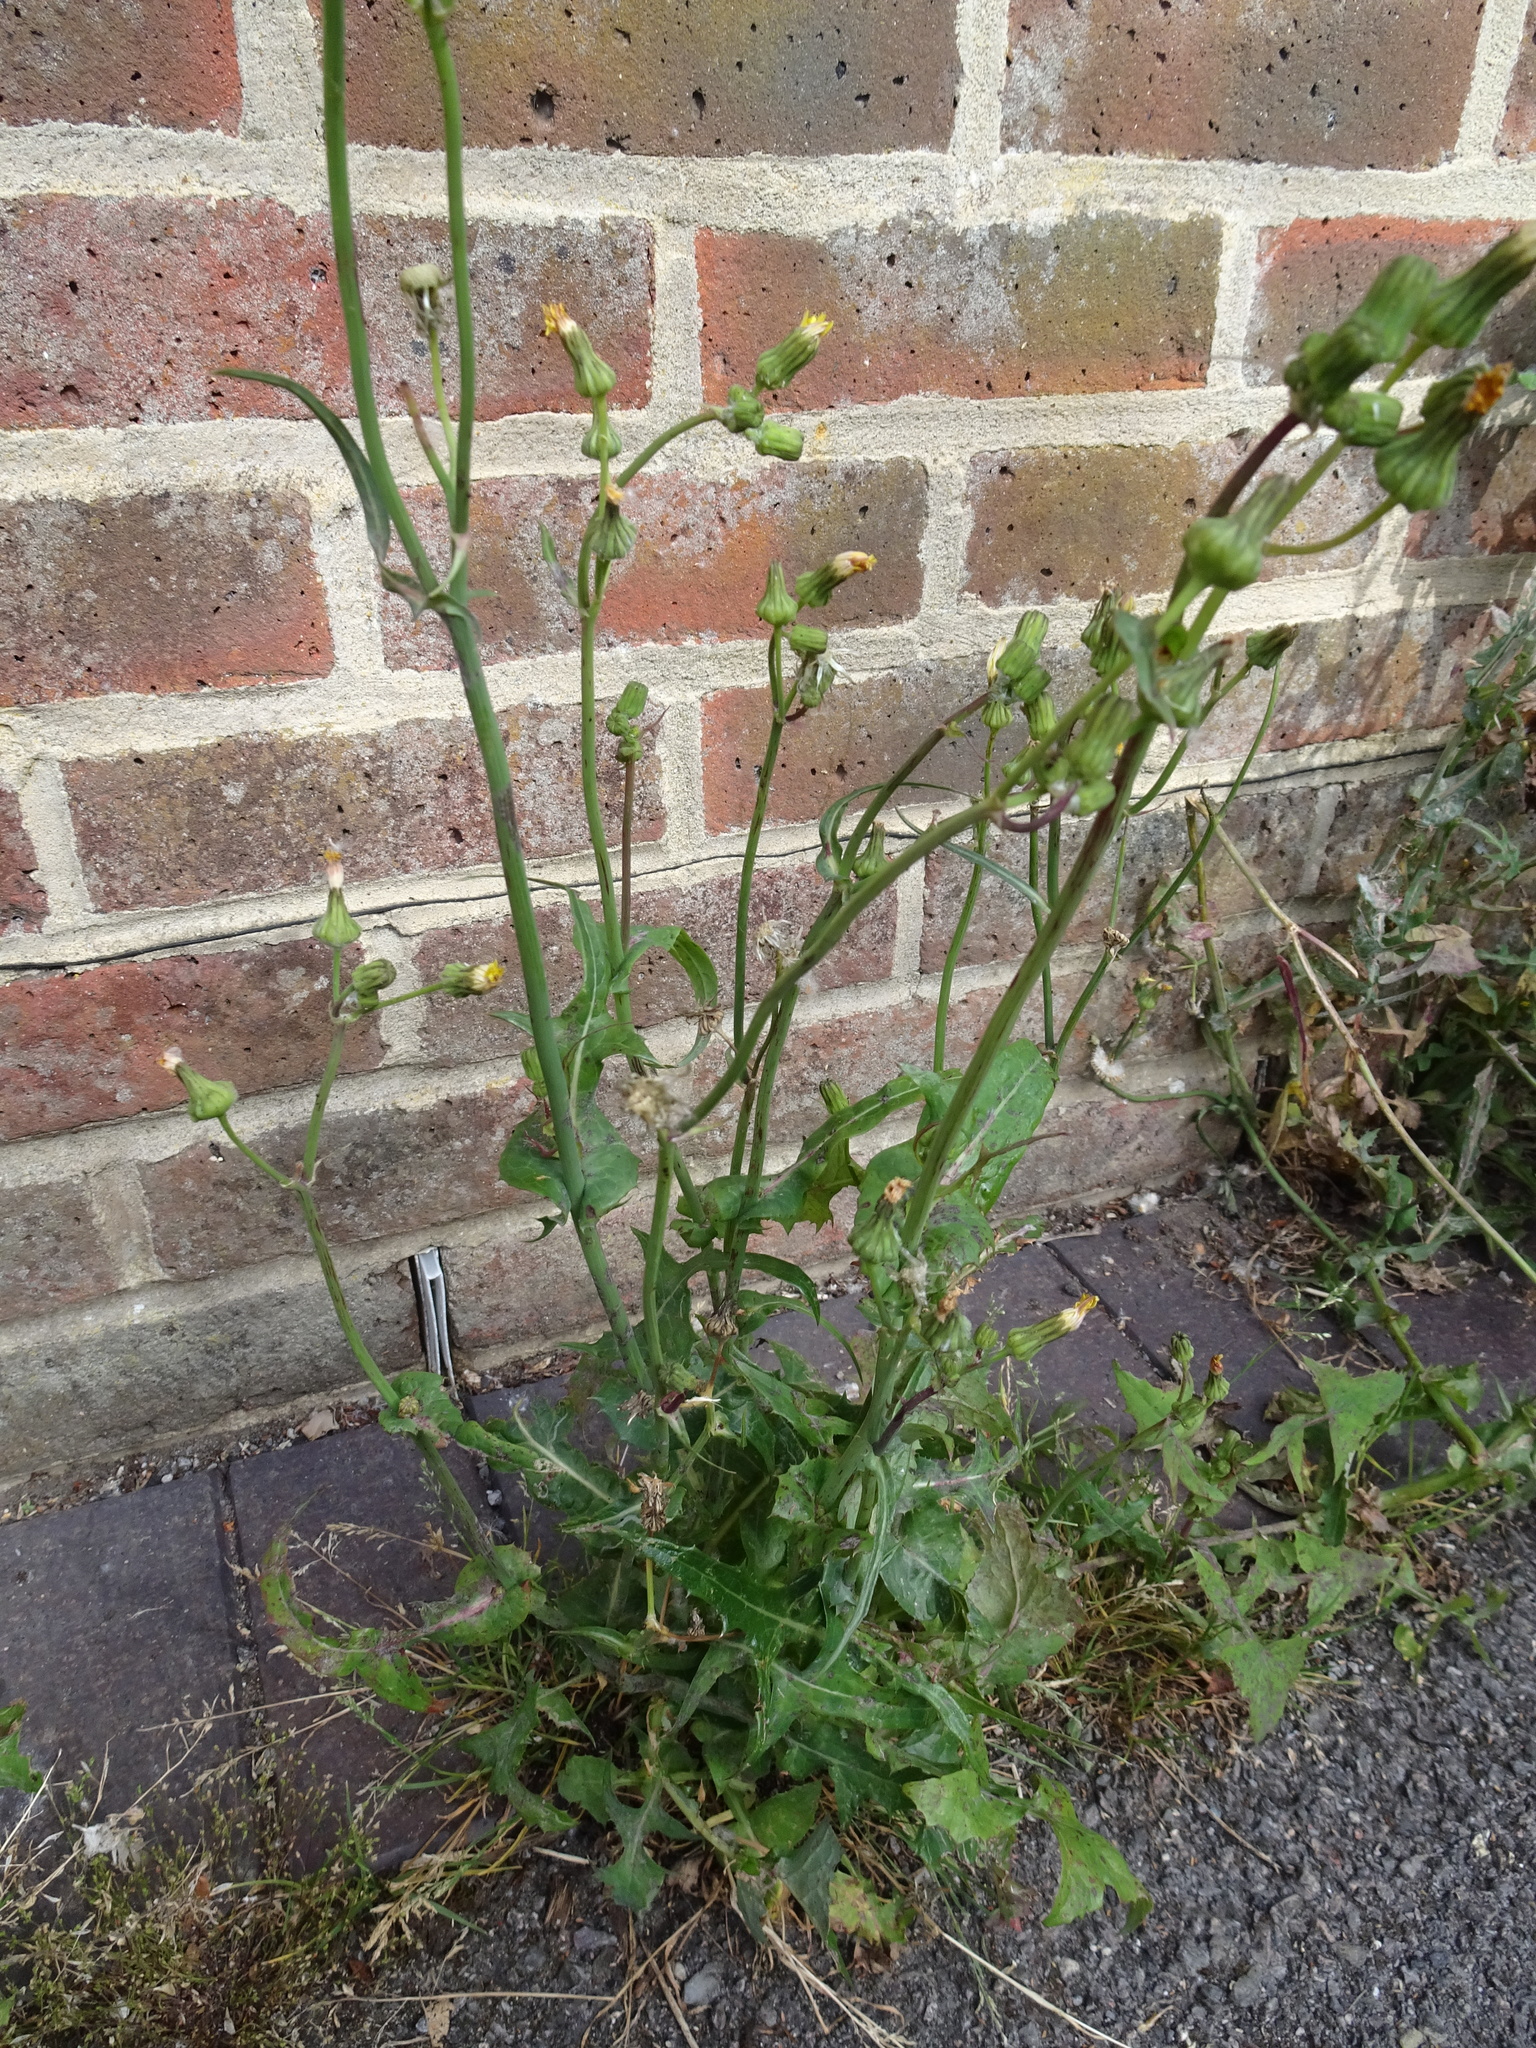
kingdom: Plantae
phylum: Tracheophyta
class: Magnoliopsida
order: Asterales
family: Asteraceae
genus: Sonchus
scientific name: Sonchus oleraceus
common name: Common sowthistle
